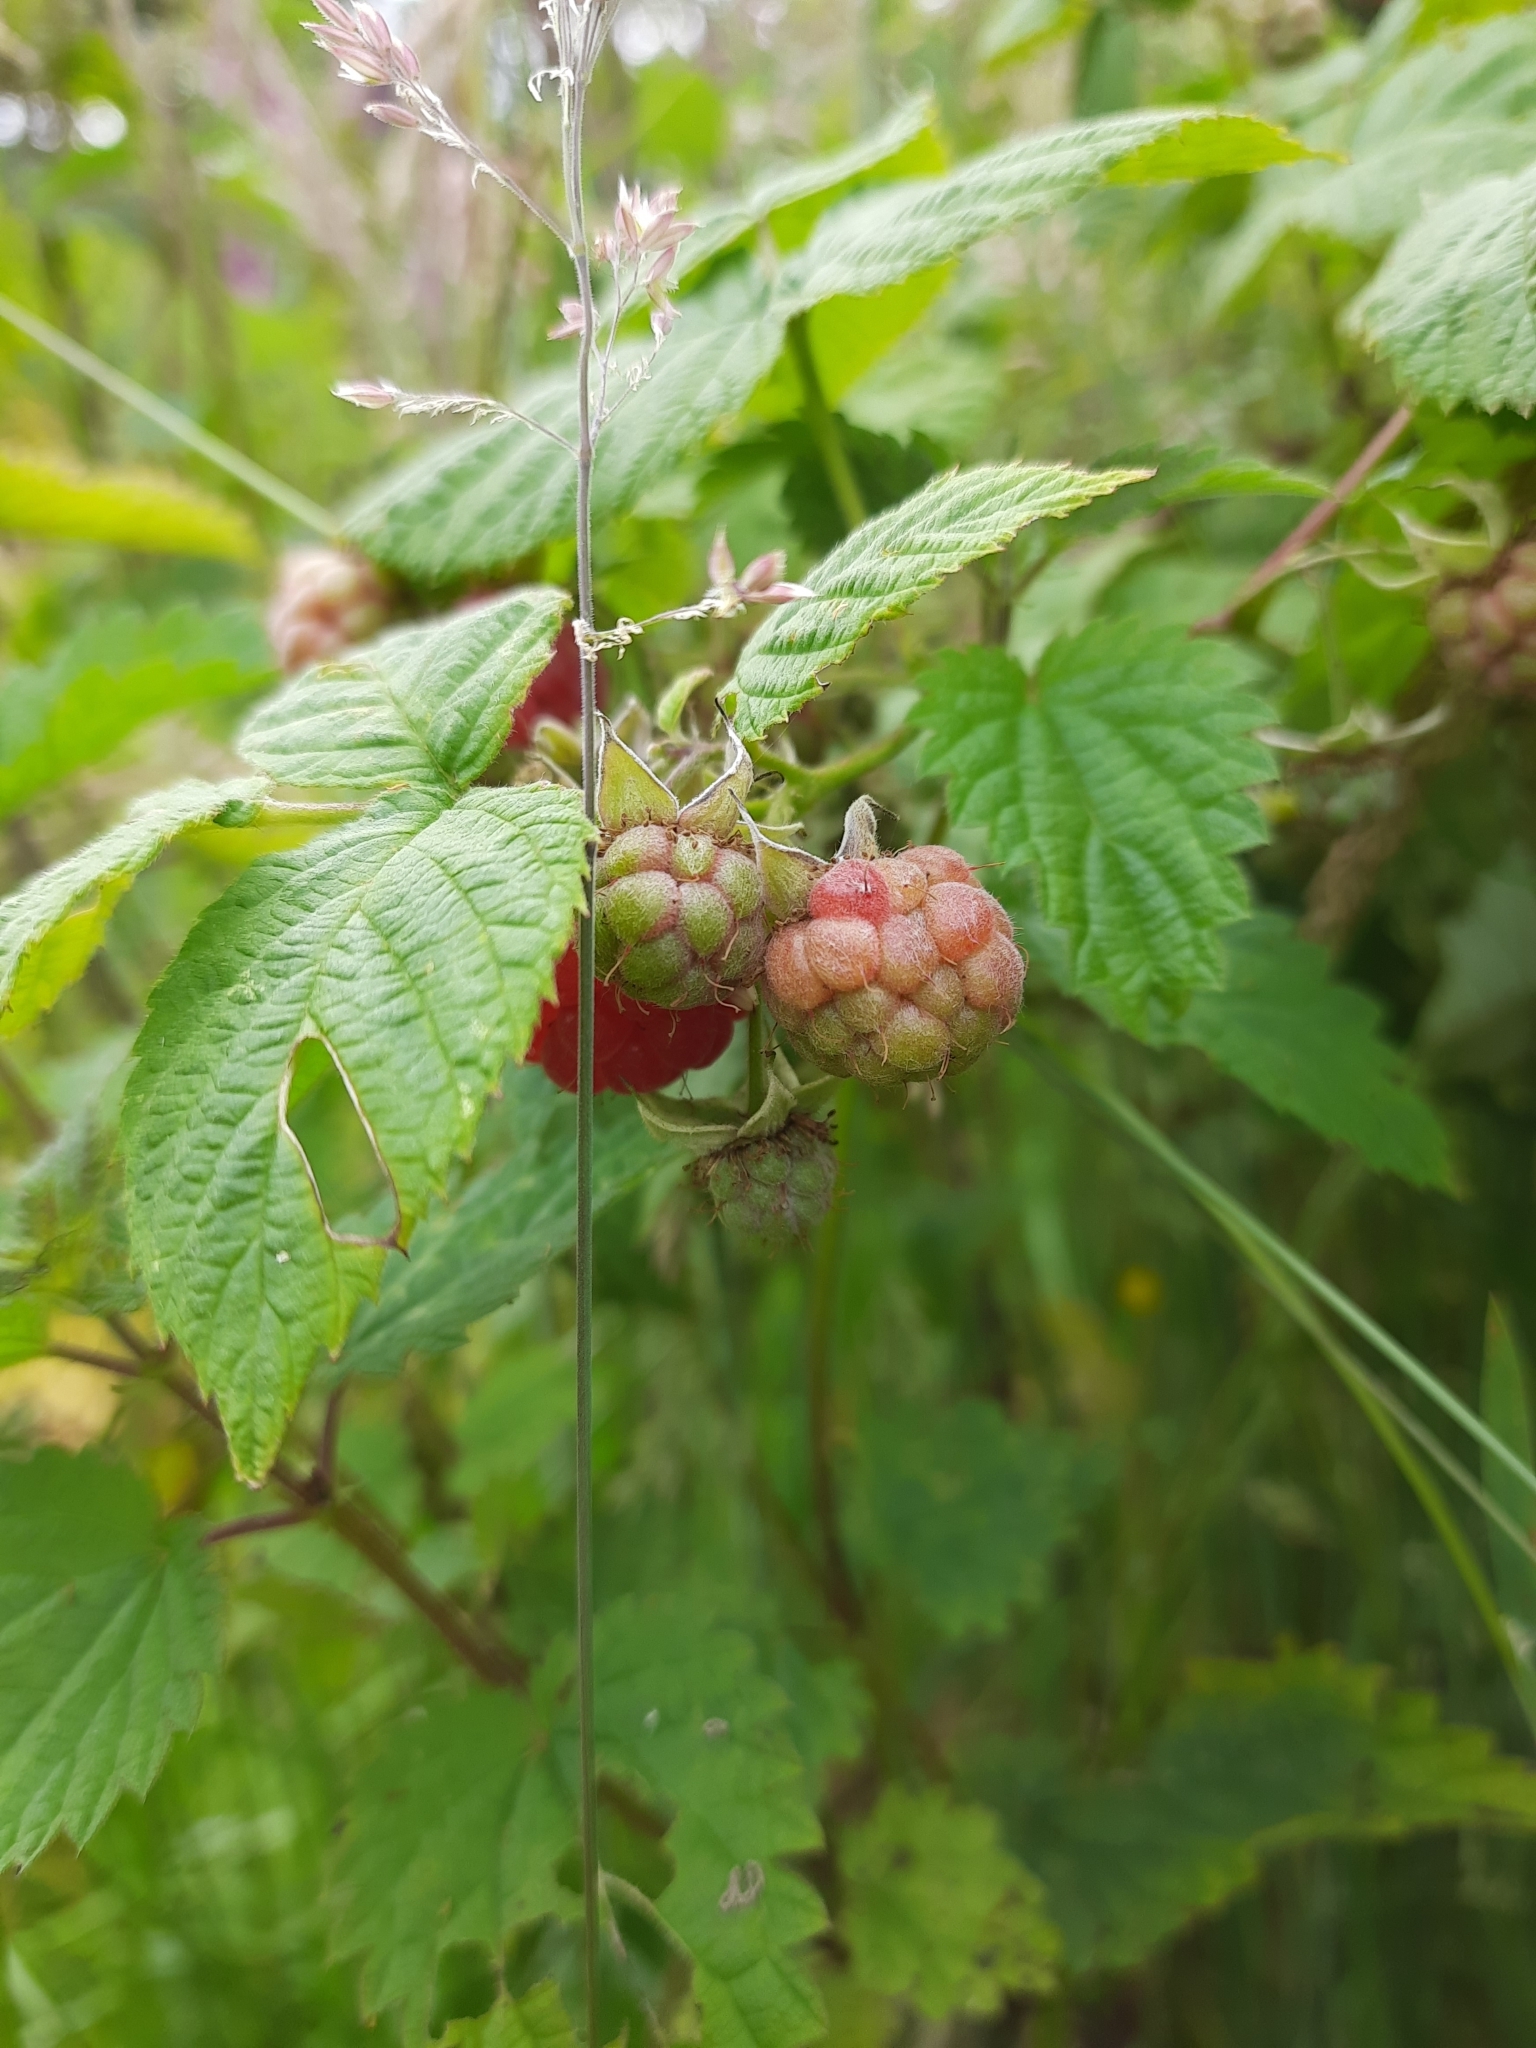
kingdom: Plantae
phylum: Tracheophyta
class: Magnoliopsida
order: Rosales
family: Rosaceae
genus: Rubus
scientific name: Rubus idaeus
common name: Raspberry
